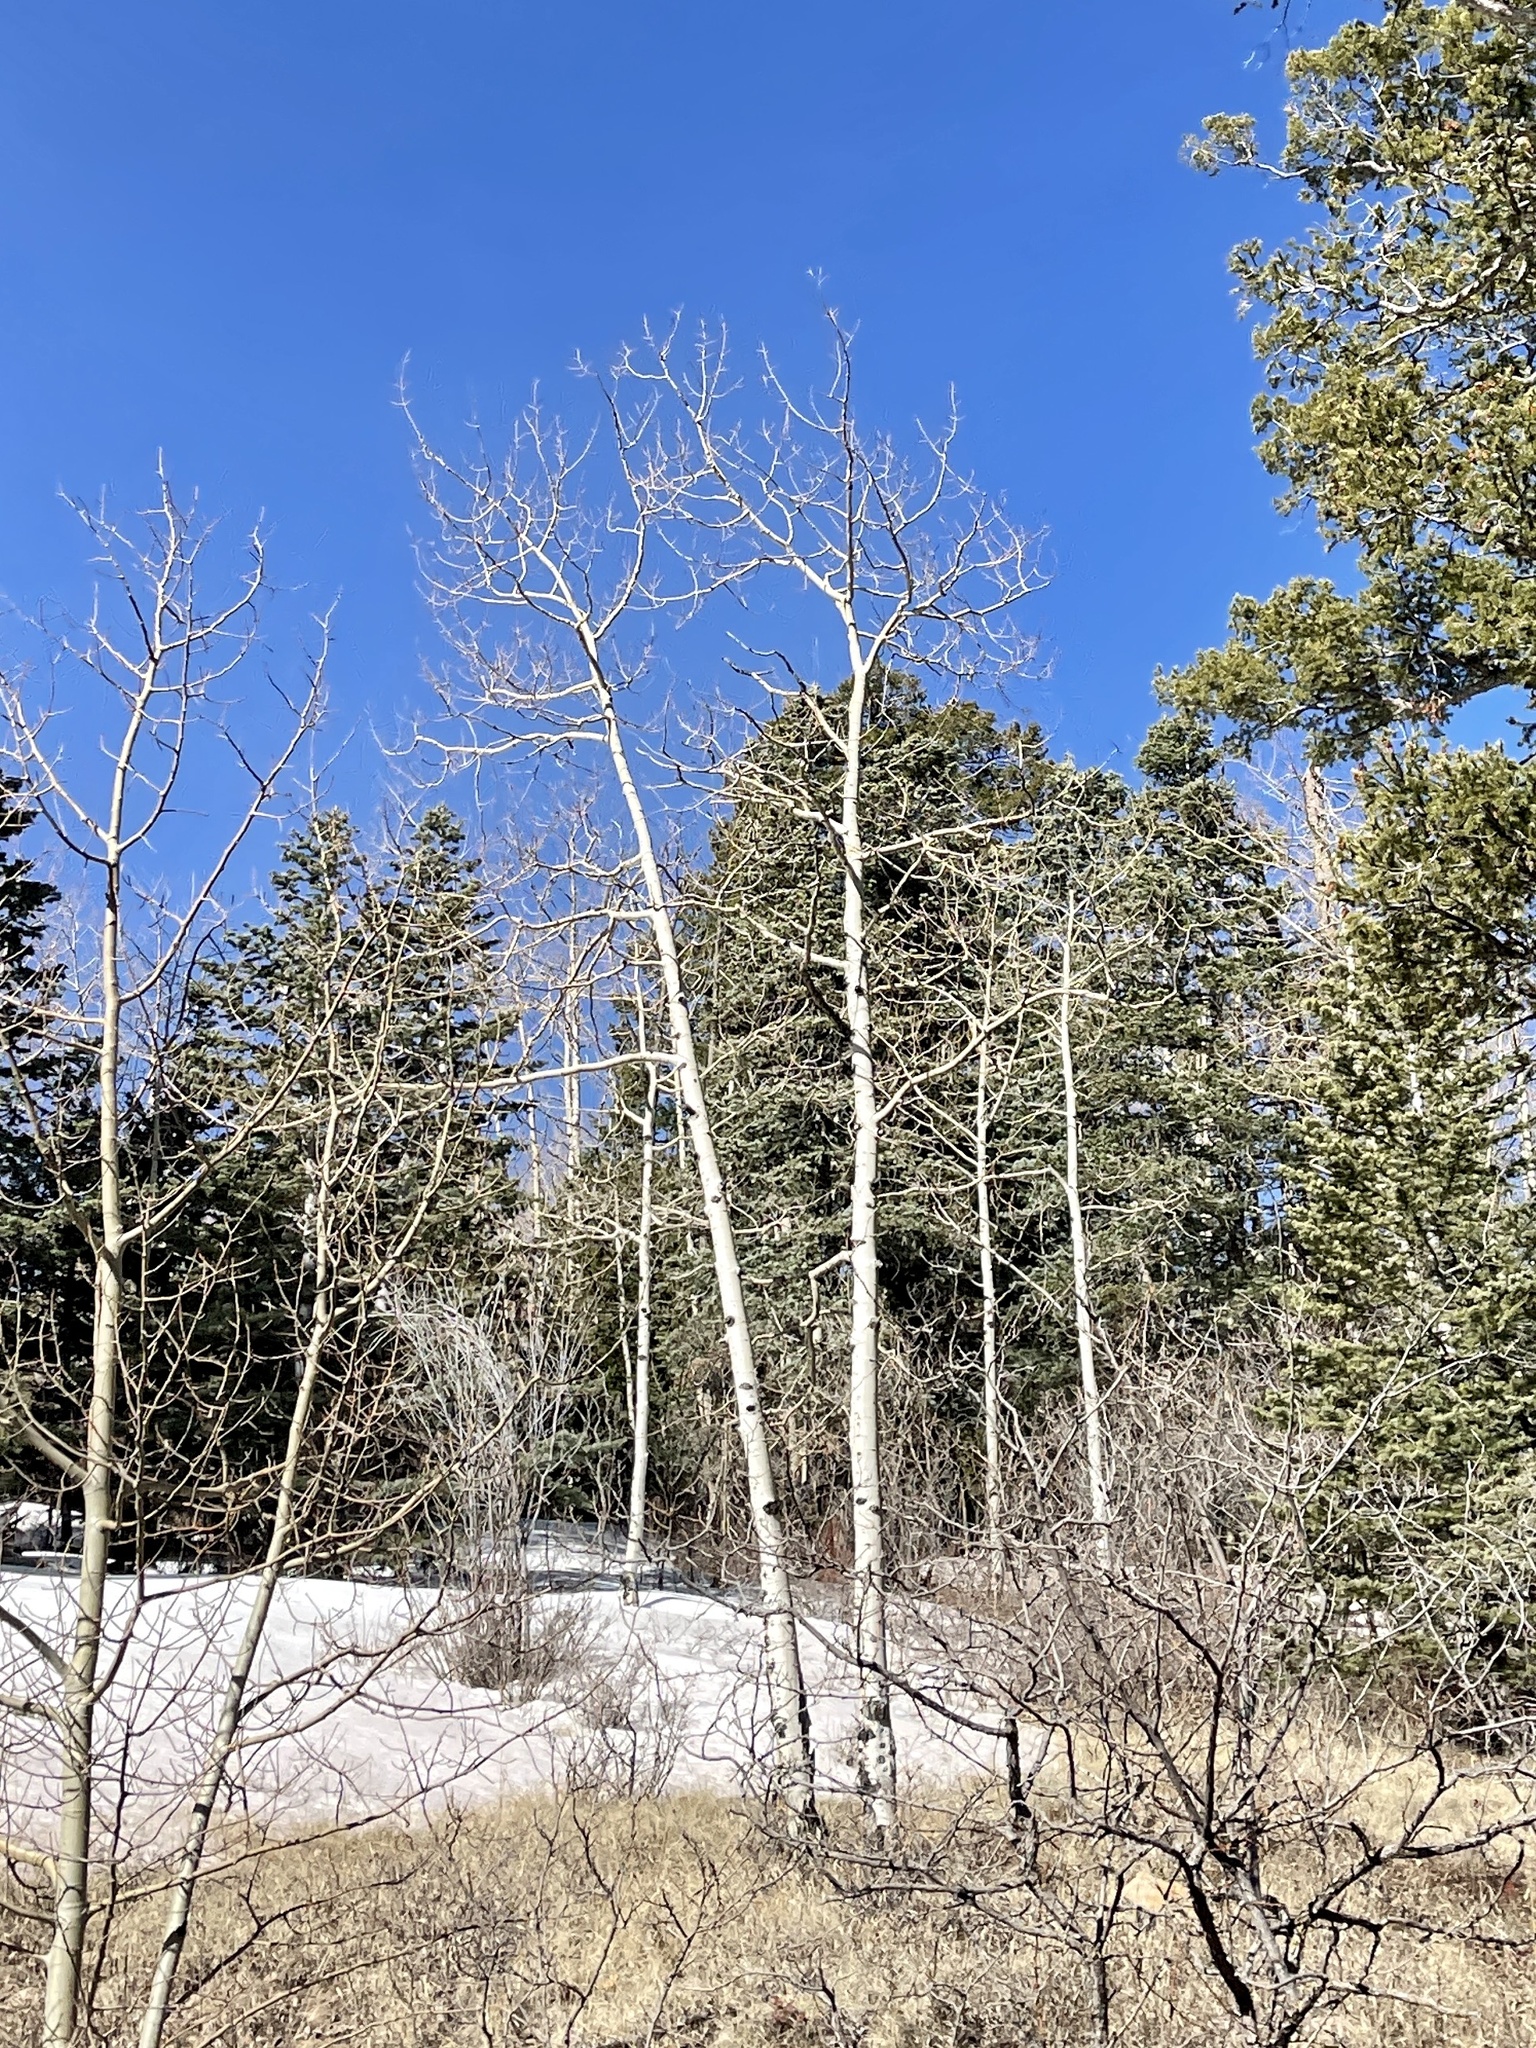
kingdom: Plantae
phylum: Tracheophyta
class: Magnoliopsida
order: Malpighiales
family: Salicaceae
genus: Populus
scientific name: Populus tremuloides
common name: Quaking aspen
